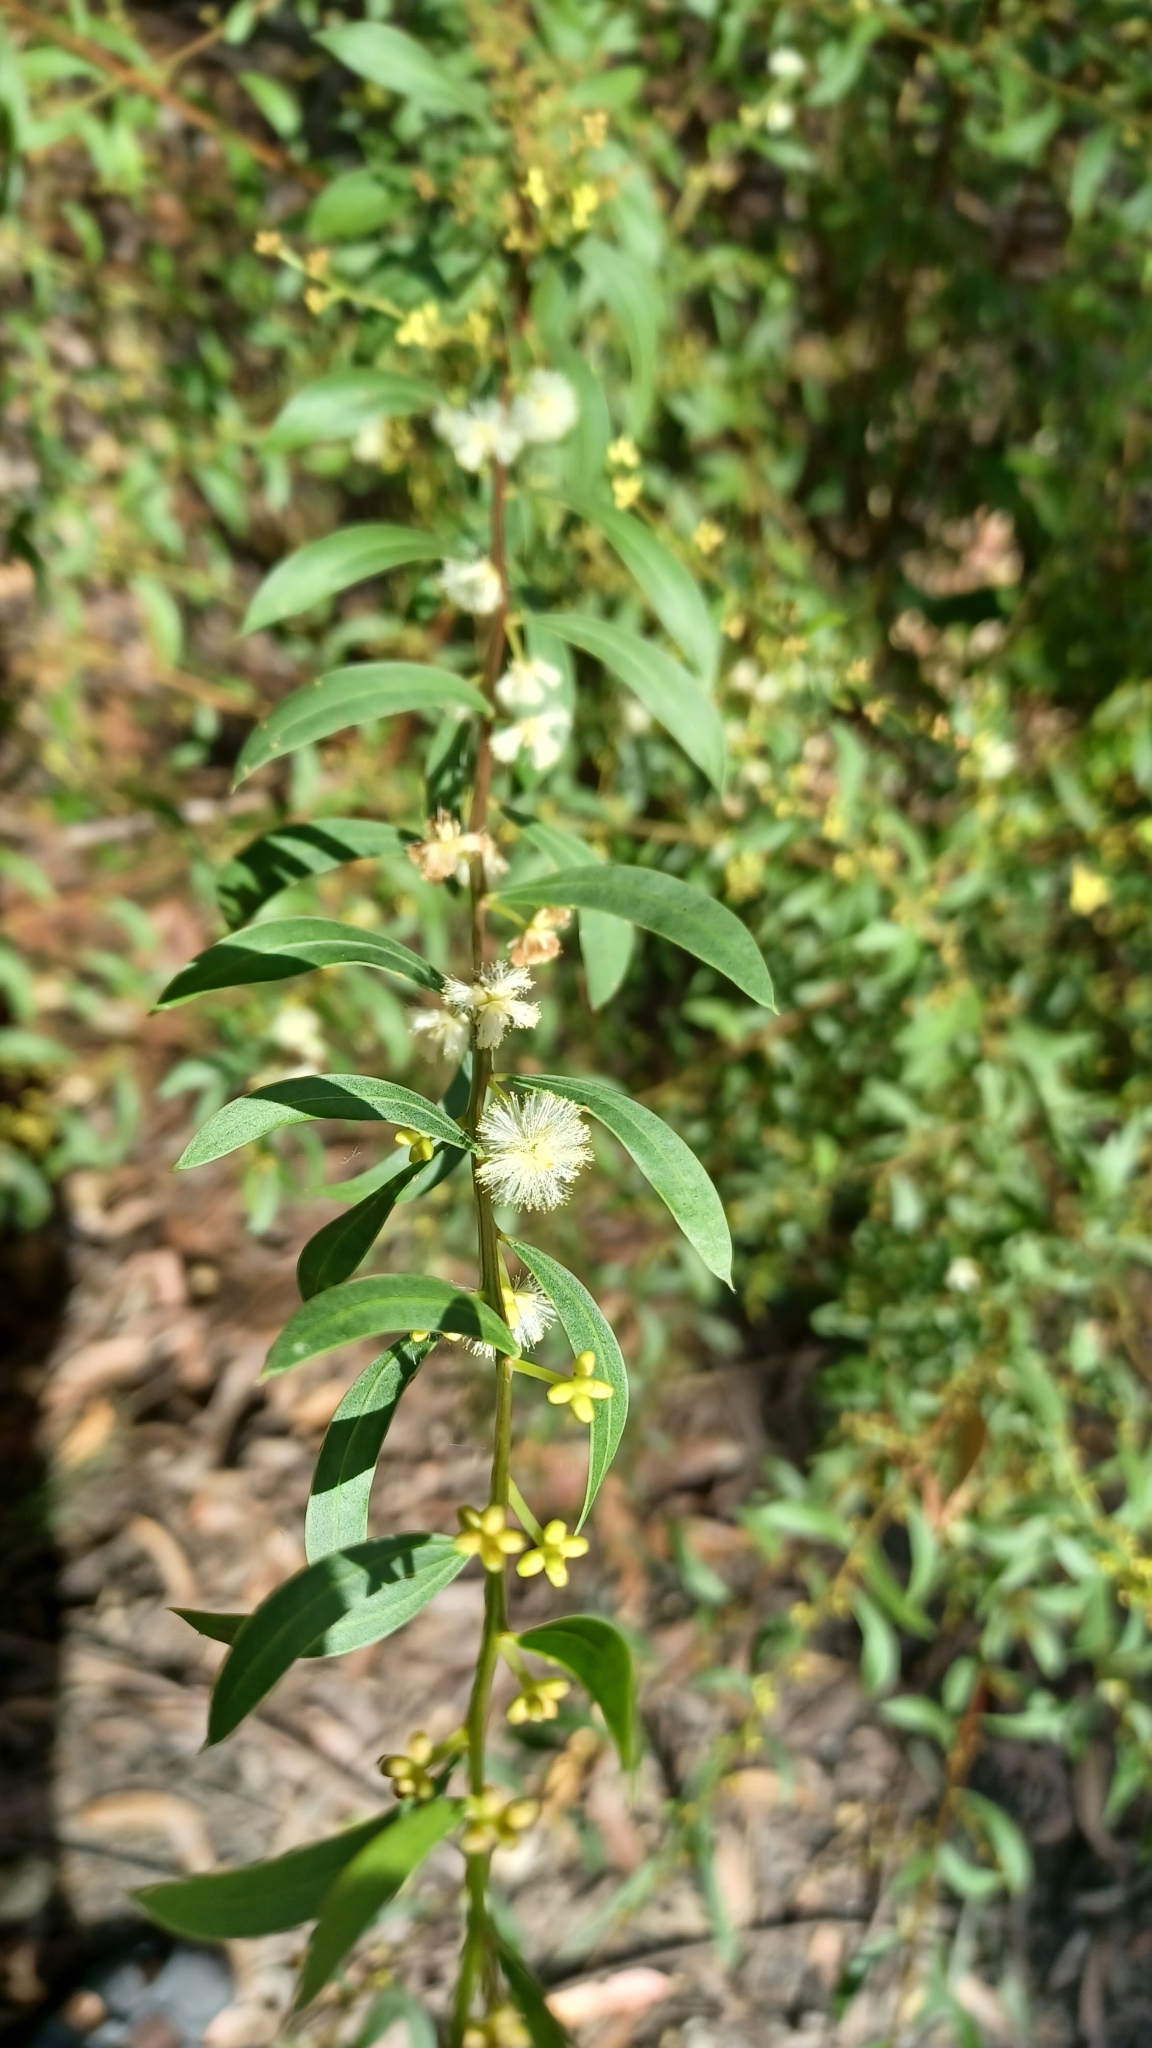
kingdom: Plantae
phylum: Tracheophyta
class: Magnoliopsida
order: Fabales
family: Fabaceae
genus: Acacia
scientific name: Acacia myrtifolia
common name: Myrtle wattle
